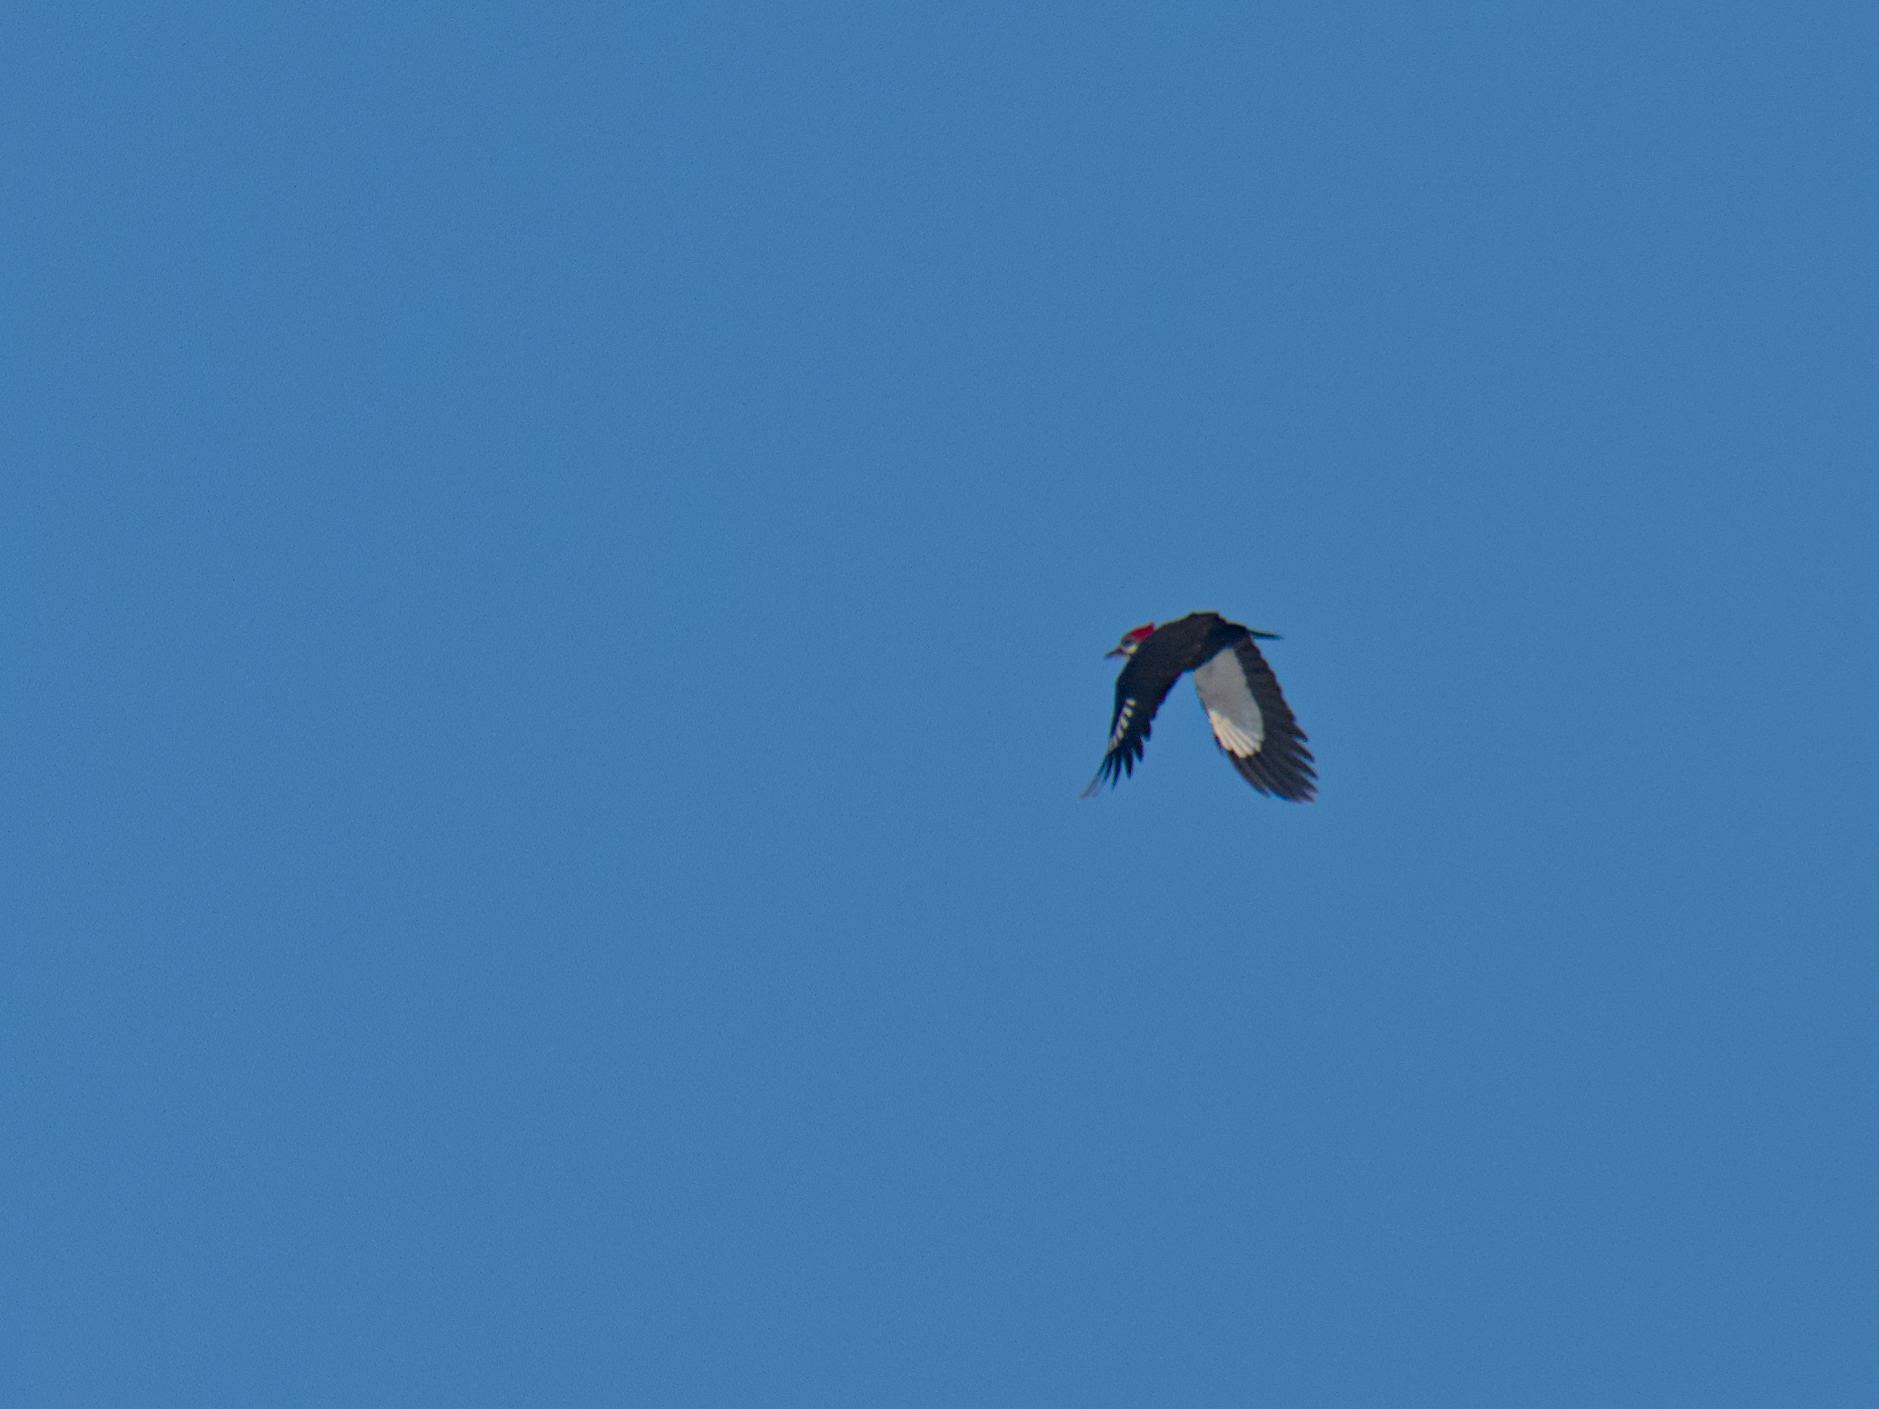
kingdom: Animalia
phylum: Chordata
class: Aves
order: Piciformes
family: Picidae
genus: Dryocopus
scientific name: Dryocopus pileatus
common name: Pileated woodpecker
